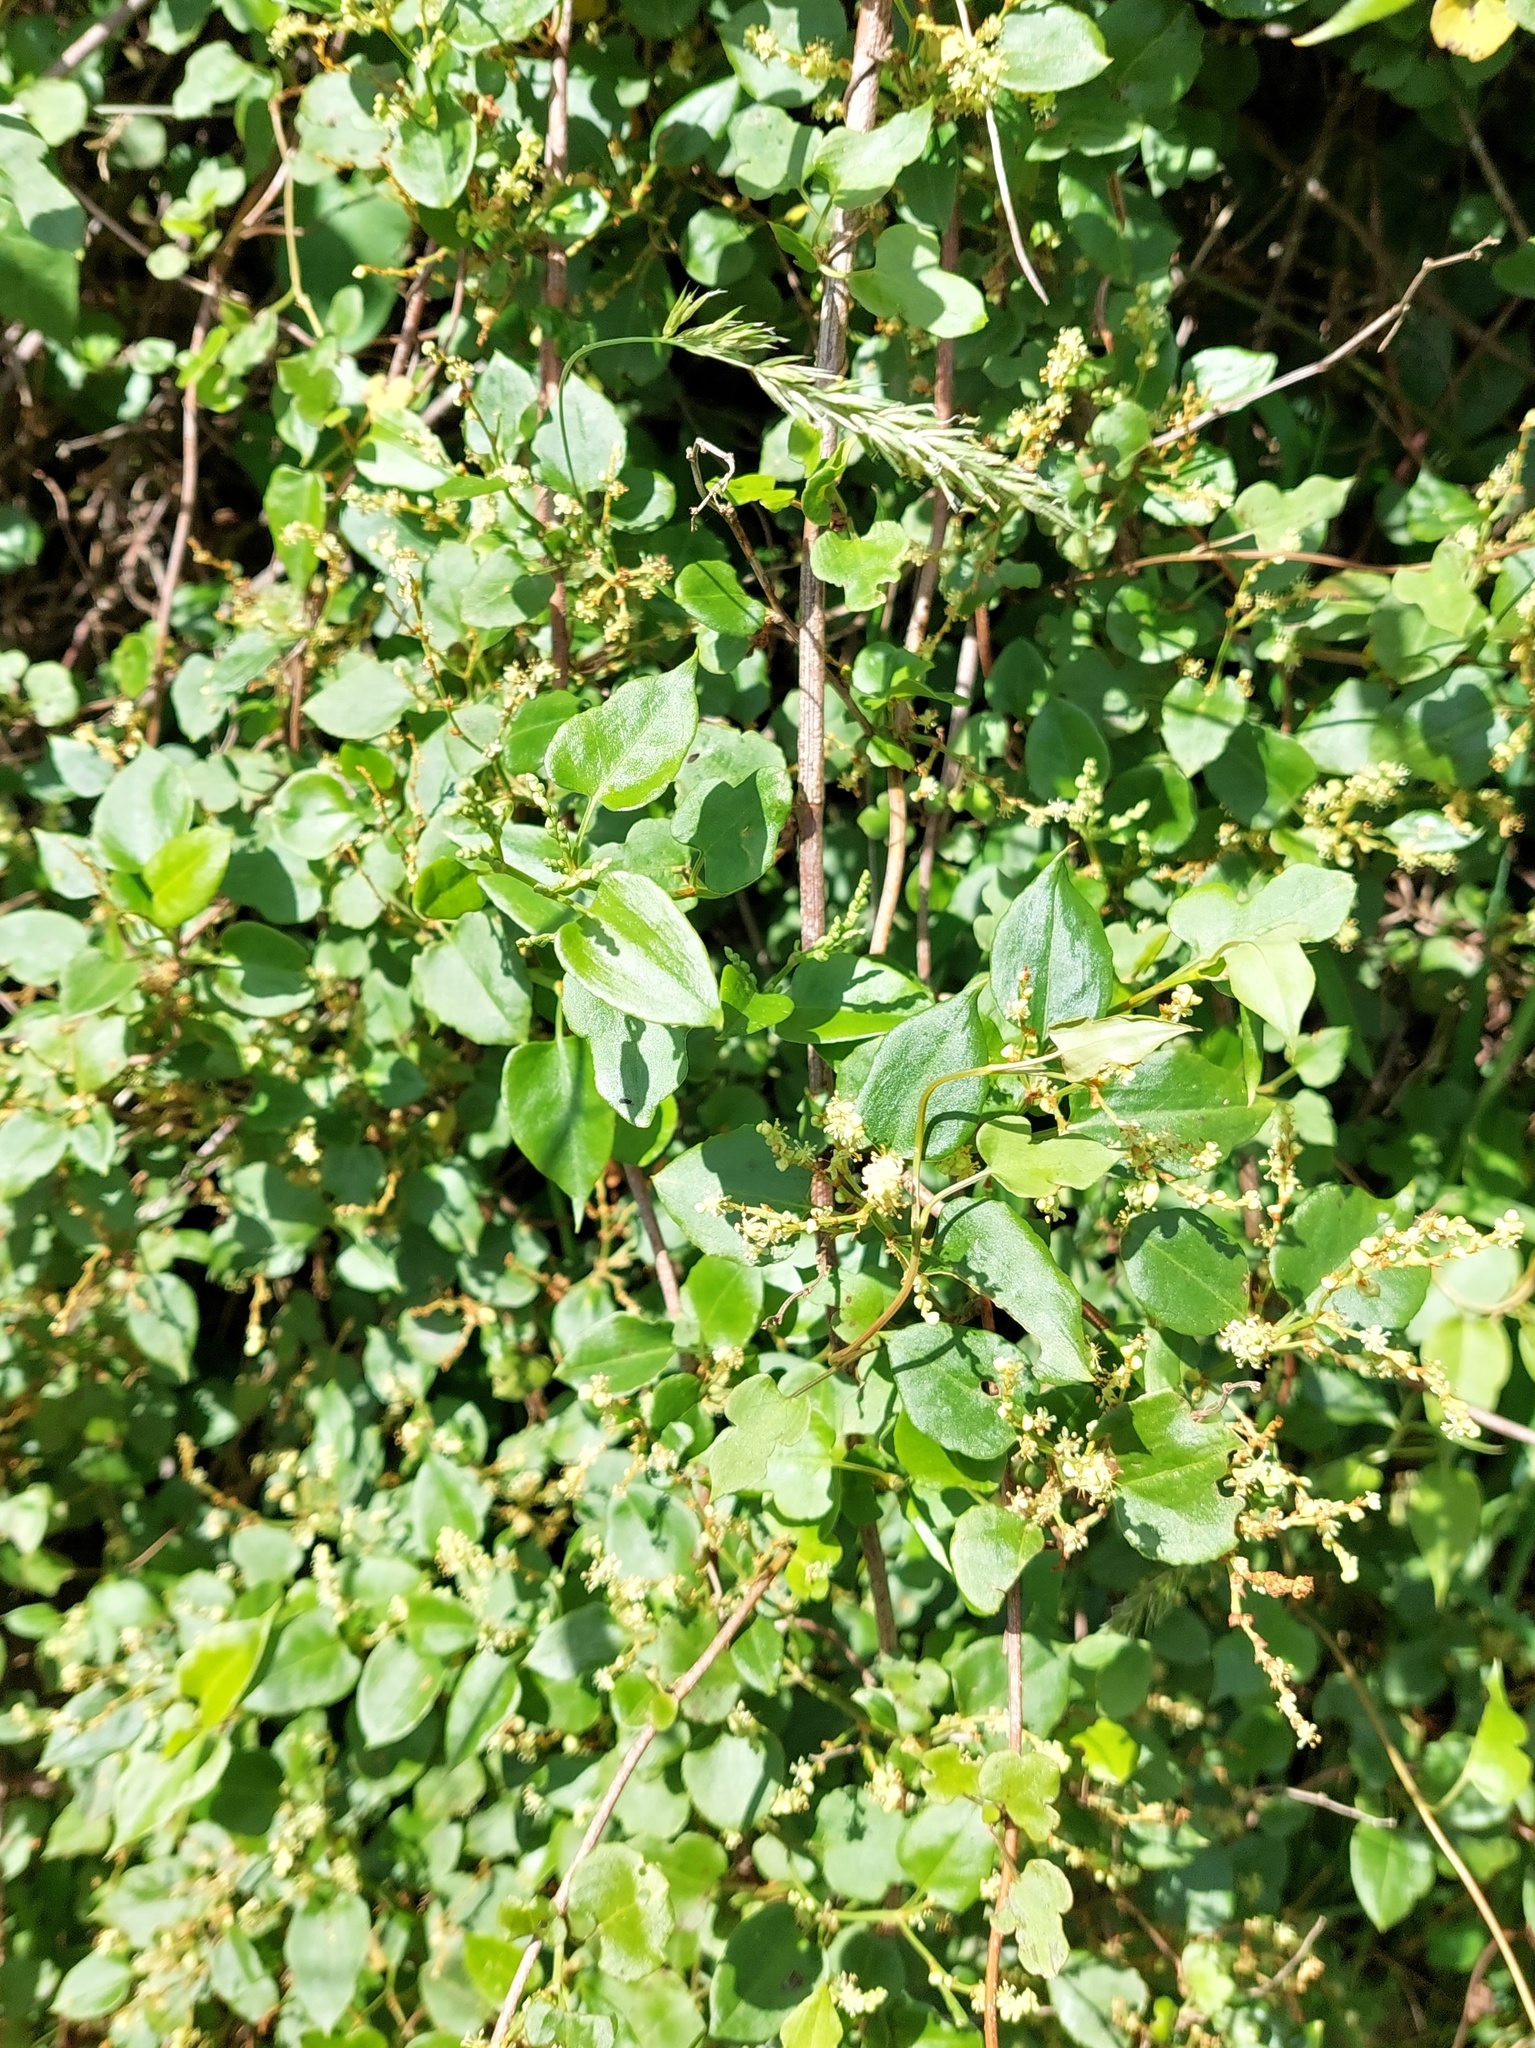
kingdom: Plantae
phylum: Tracheophyta
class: Magnoliopsida
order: Caryophyllales
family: Polygonaceae
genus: Muehlenbeckia
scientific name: Muehlenbeckia australis
